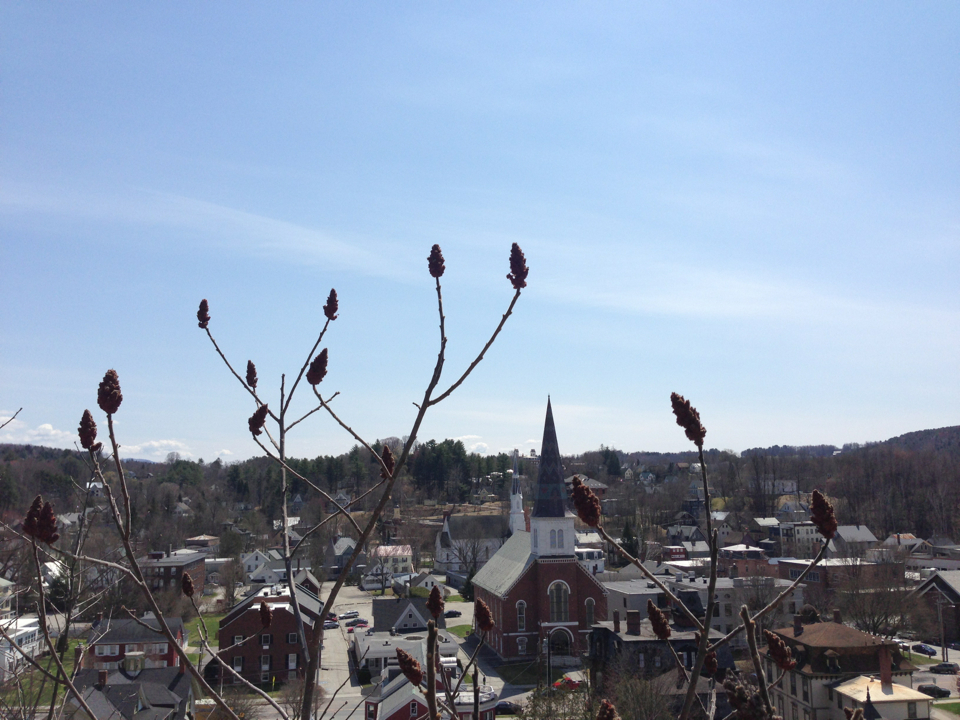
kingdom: Plantae
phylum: Tracheophyta
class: Magnoliopsida
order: Sapindales
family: Anacardiaceae
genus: Rhus
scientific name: Rhus typhina
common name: Staghorn sumac
